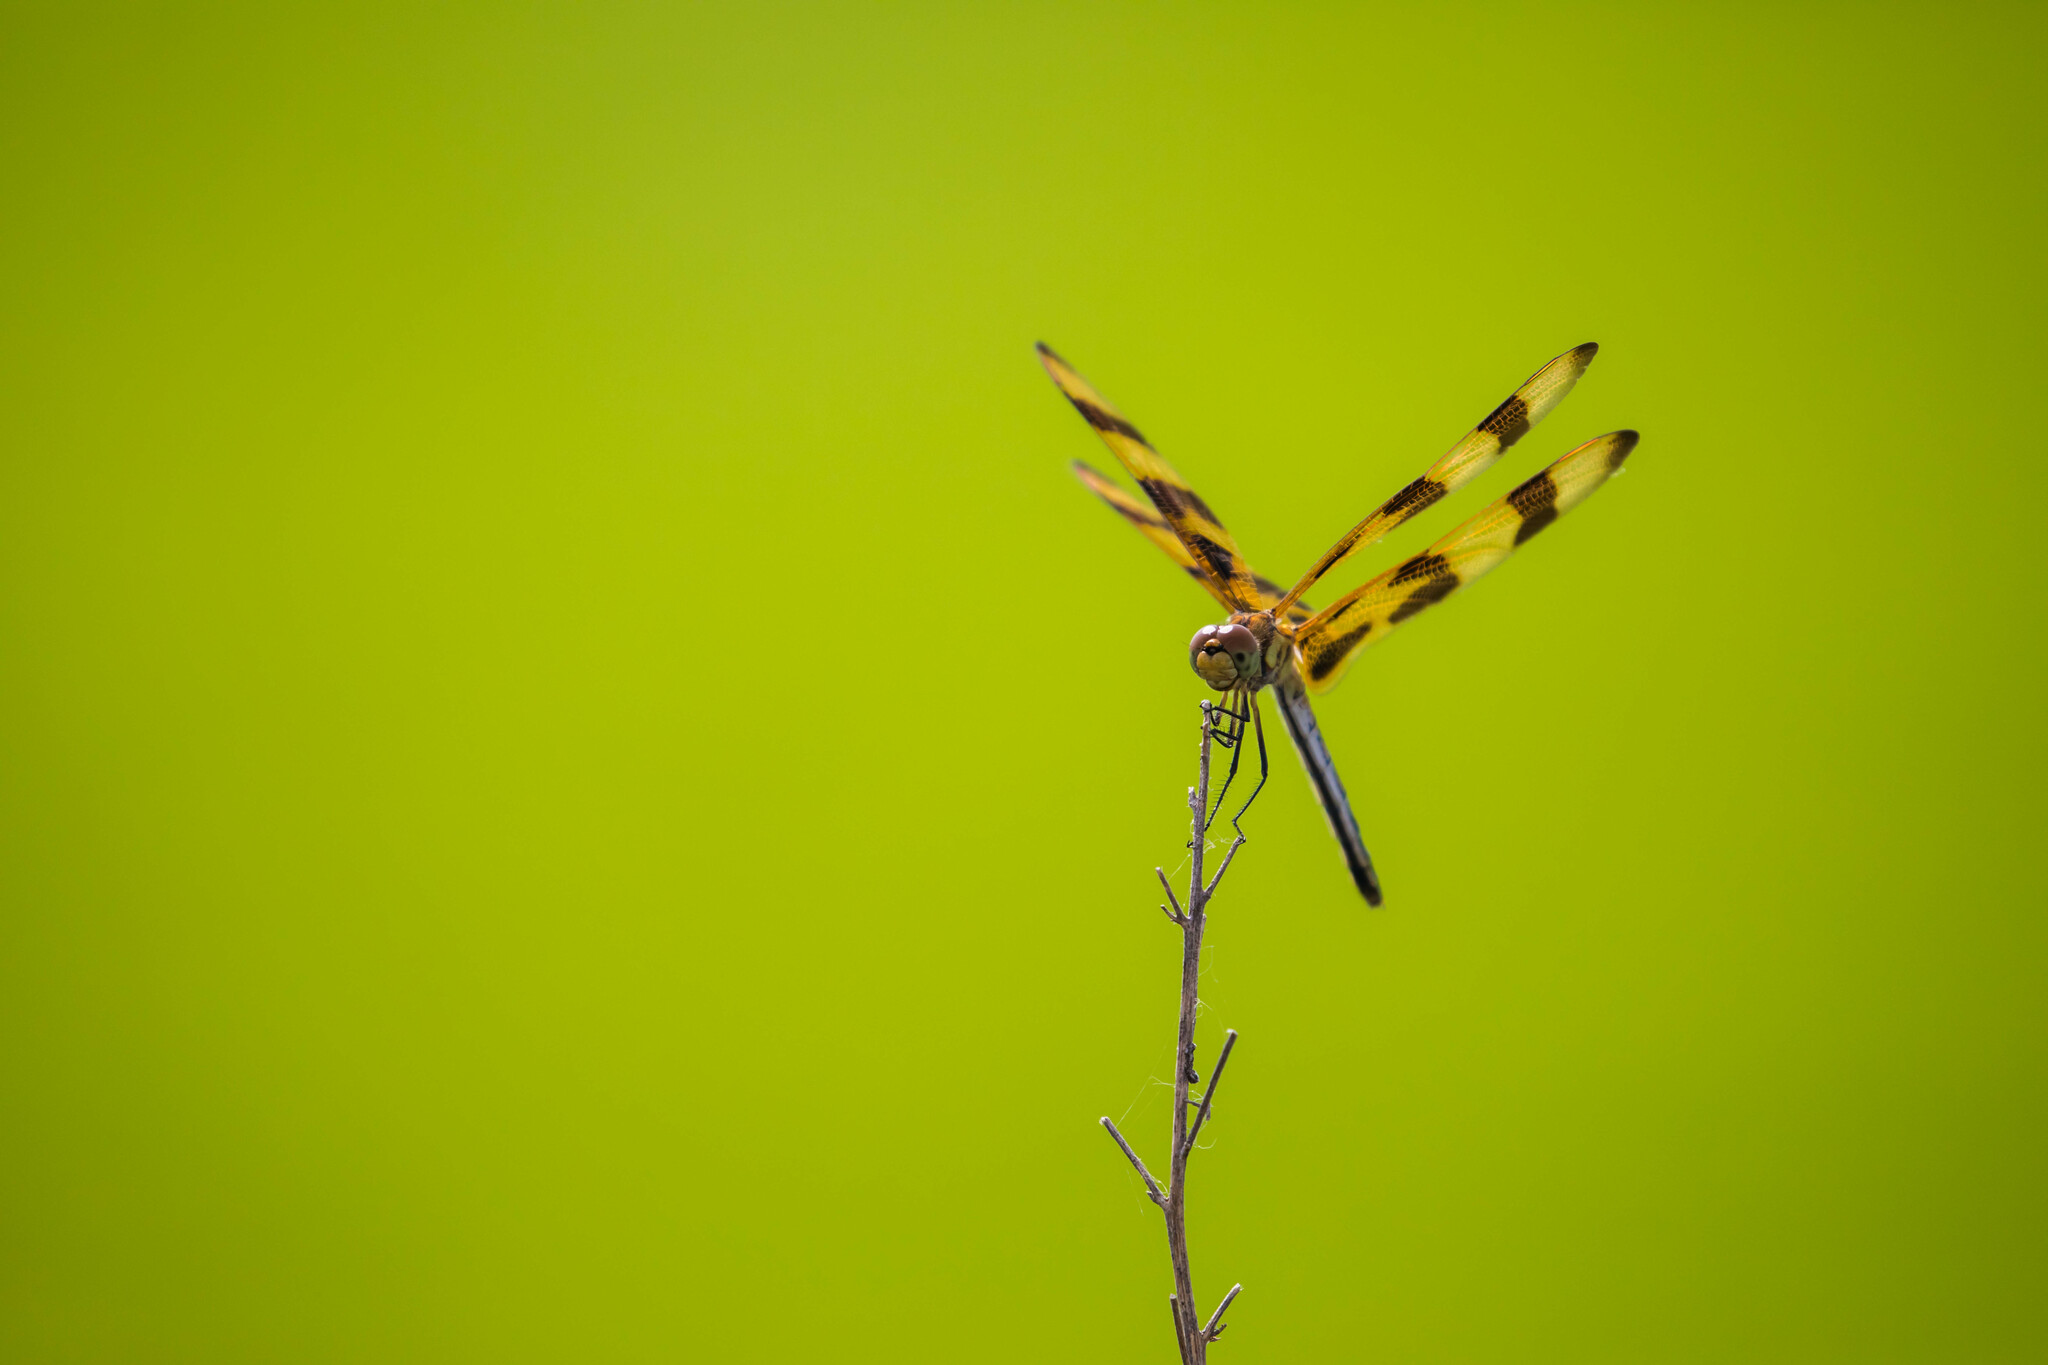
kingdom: Animalia
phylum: Arthropoda
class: Insecta
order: Odonata
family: Libellulidae
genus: Celithemis
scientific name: Celithemis eponina
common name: Halloween pennant
